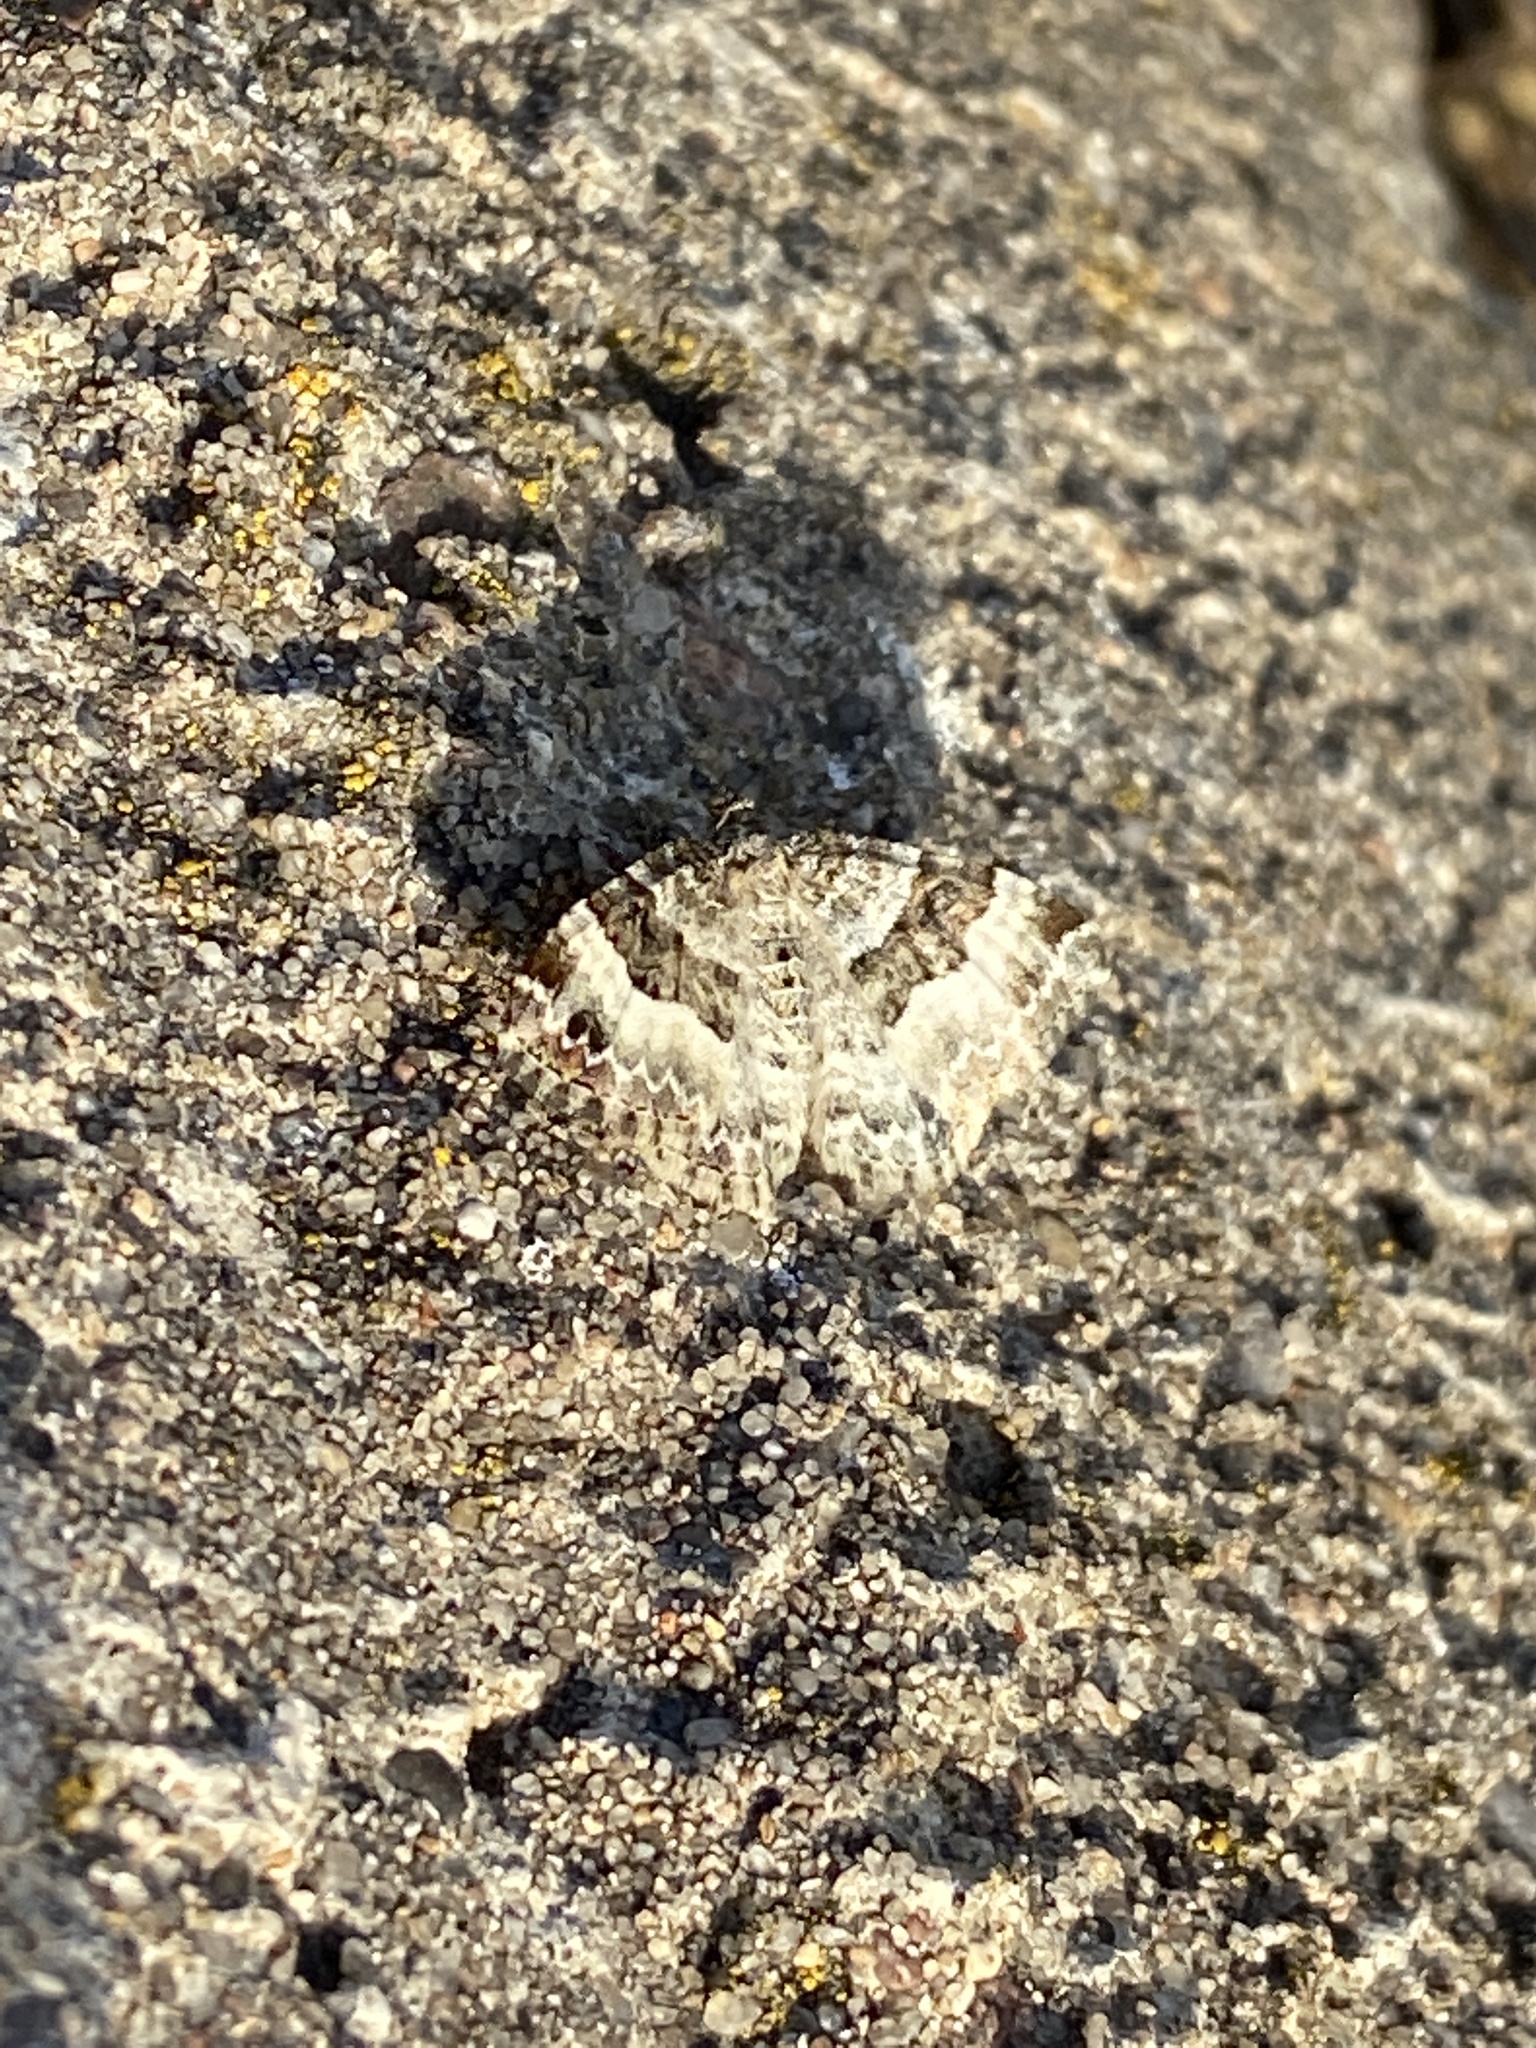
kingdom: Animalia
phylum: Arthropoda
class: Insecta
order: Lepidoptera
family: Geometridae
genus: Epirrhoe
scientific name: Epirrhoe alternata
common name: Common carpet
